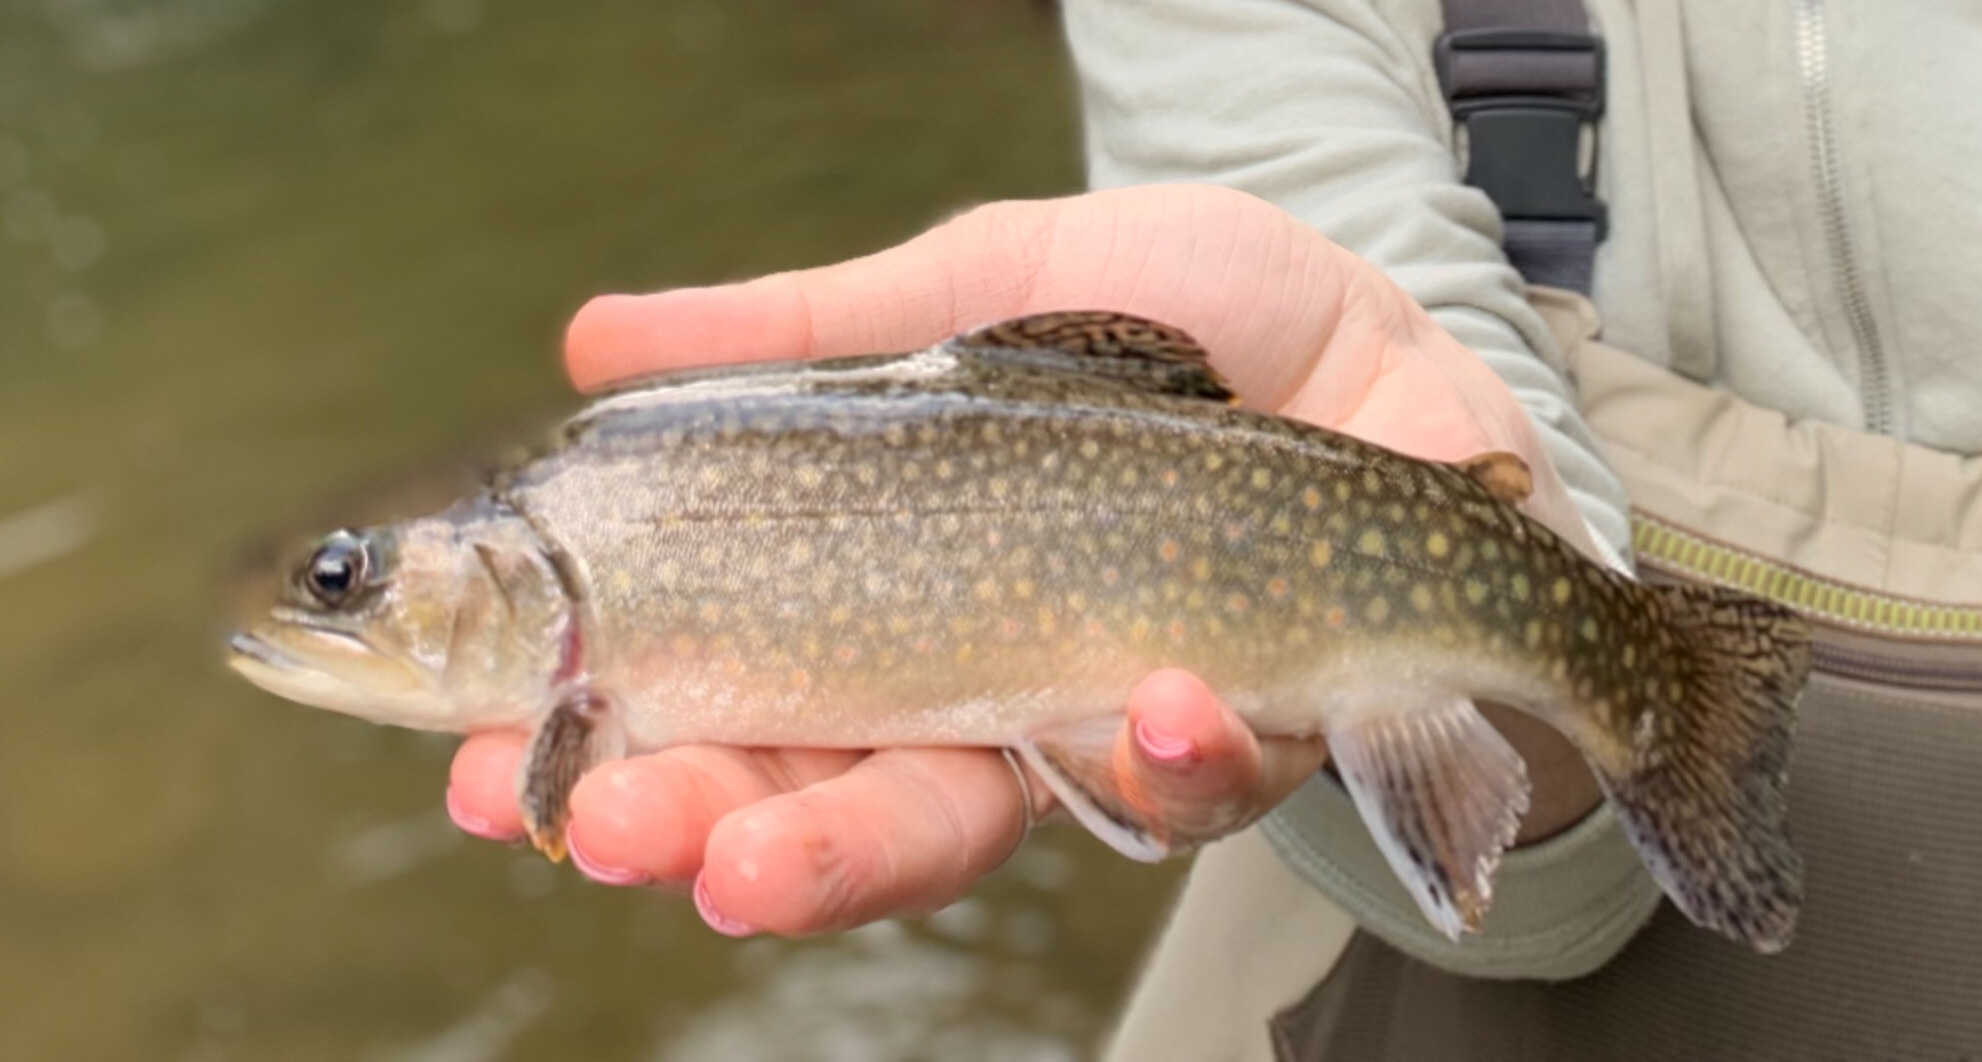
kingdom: Animalia
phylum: Chordata
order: Salmoniformes
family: Salmonidae
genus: Salvelinus
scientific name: Salvelinus fontinalis
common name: Brook trout
